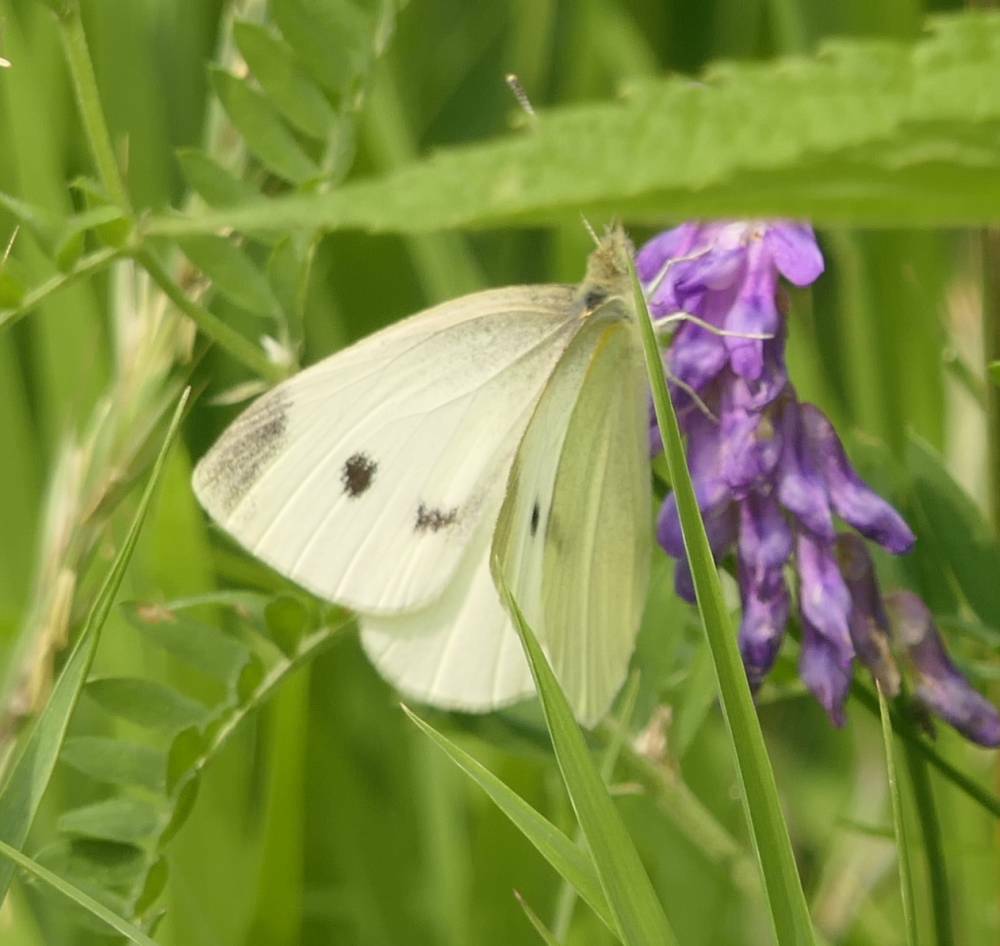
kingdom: Animalia
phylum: Arthropoda
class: Insecta
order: Lepidoptera
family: Pieridae
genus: Pieris
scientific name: Pieris rapae
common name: Small white
